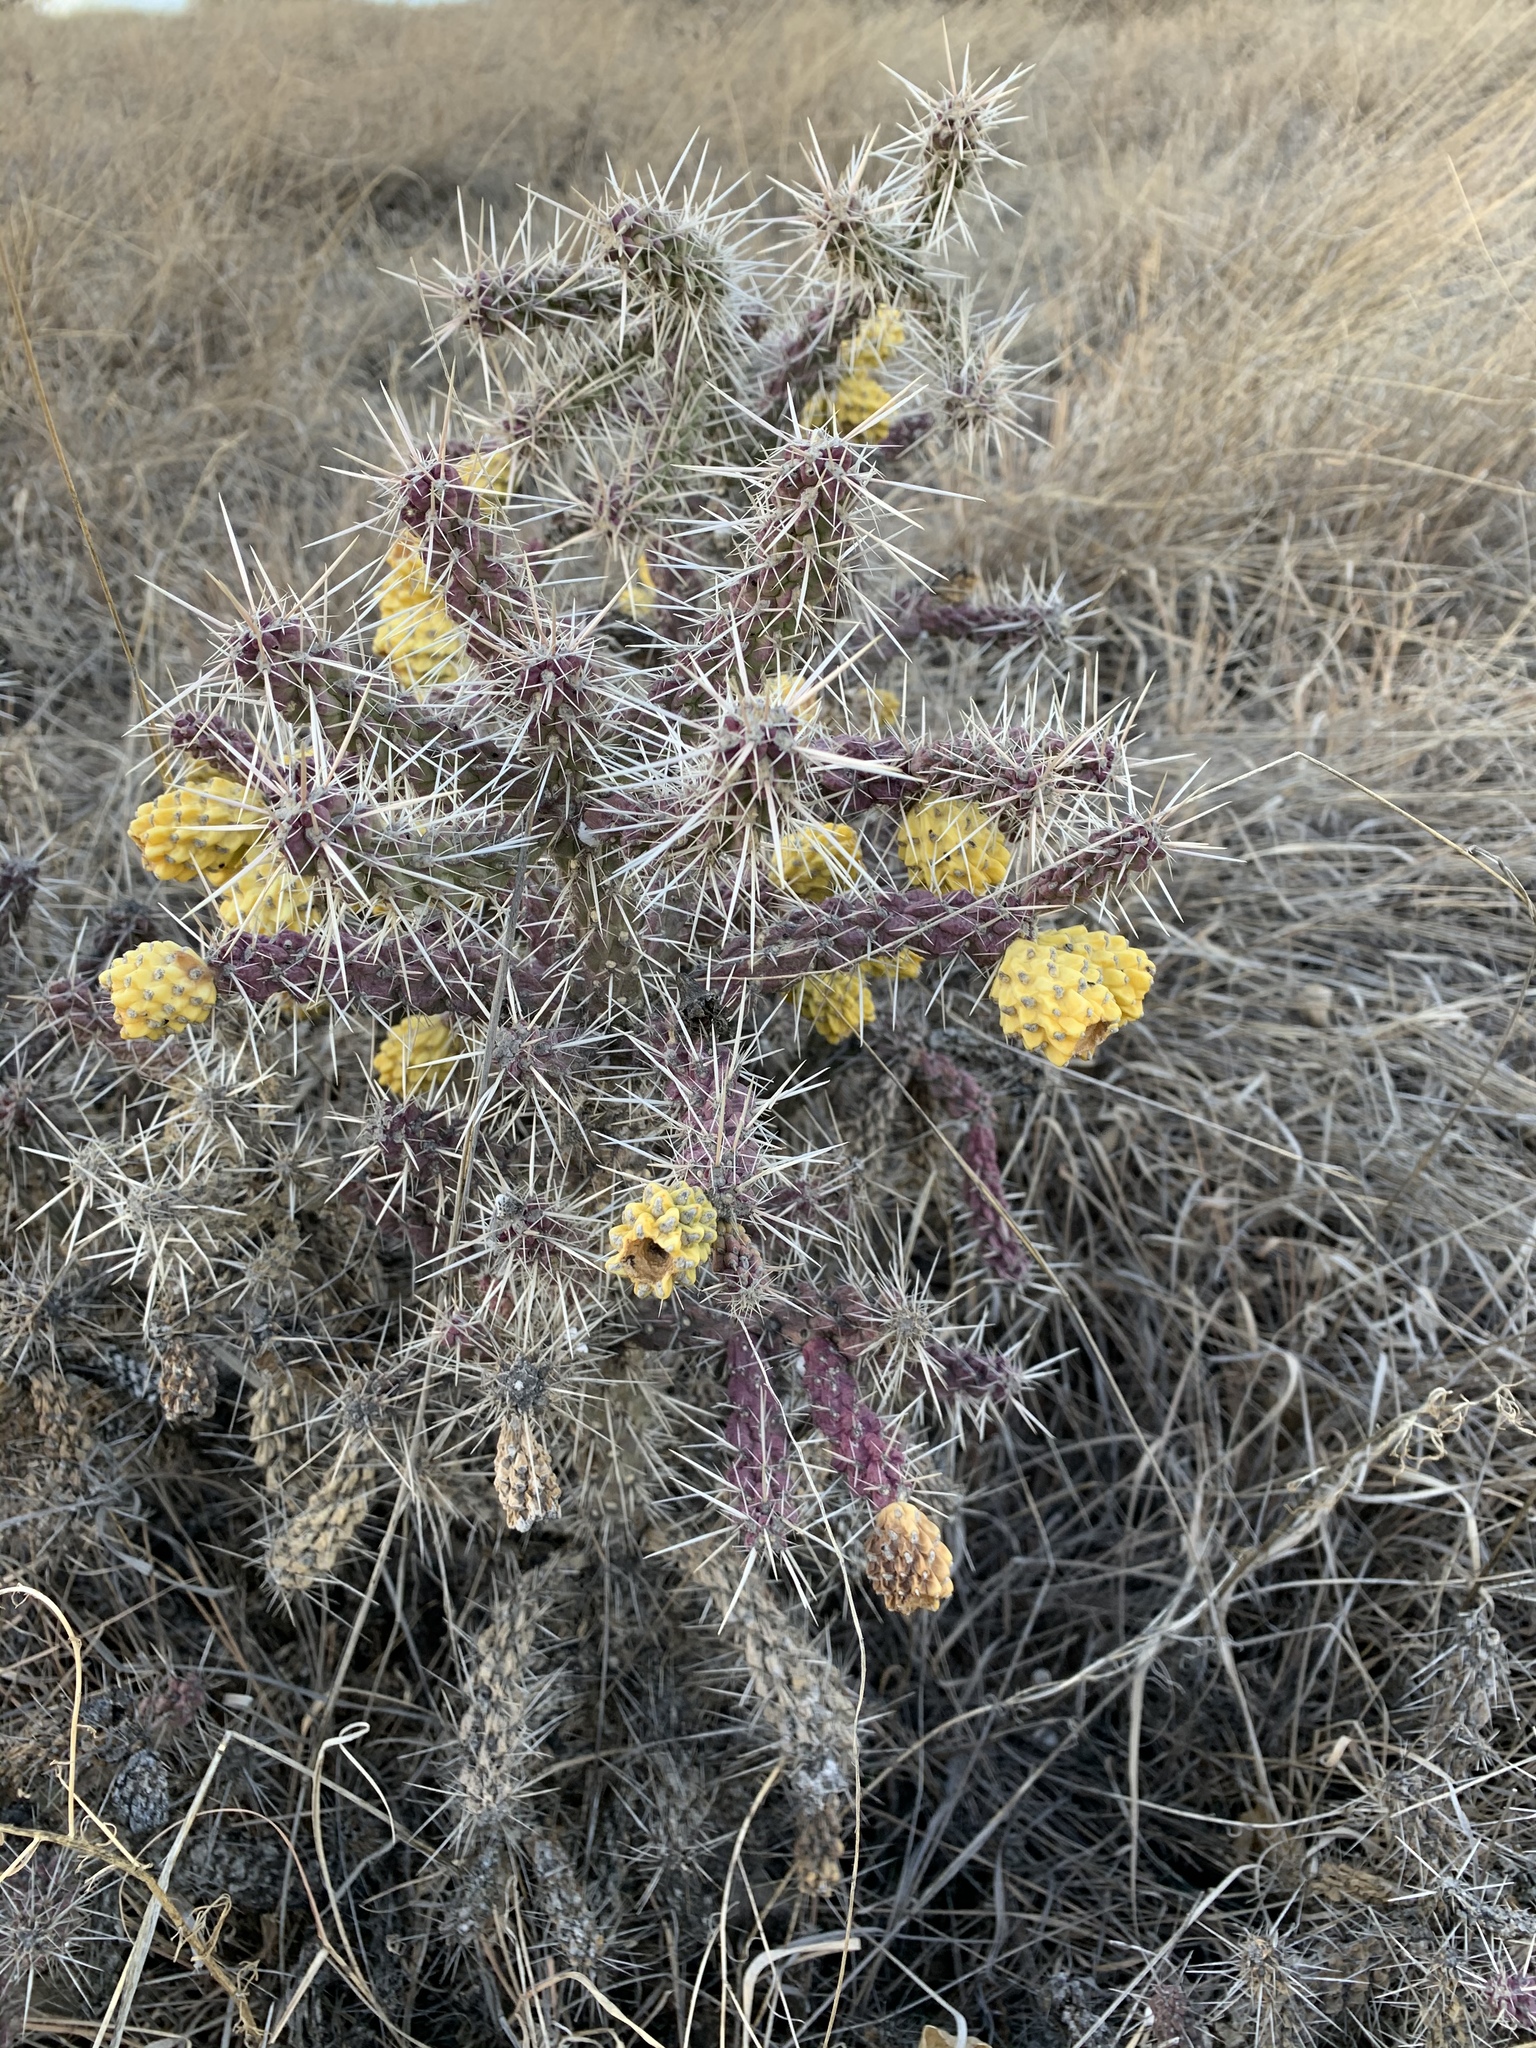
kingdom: Plantae
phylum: Tracheophyta
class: Magnoliopsida
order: Caryophyllales
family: Cactaceae
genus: Cylindropuntia
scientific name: Cylindropuntia whipplei
